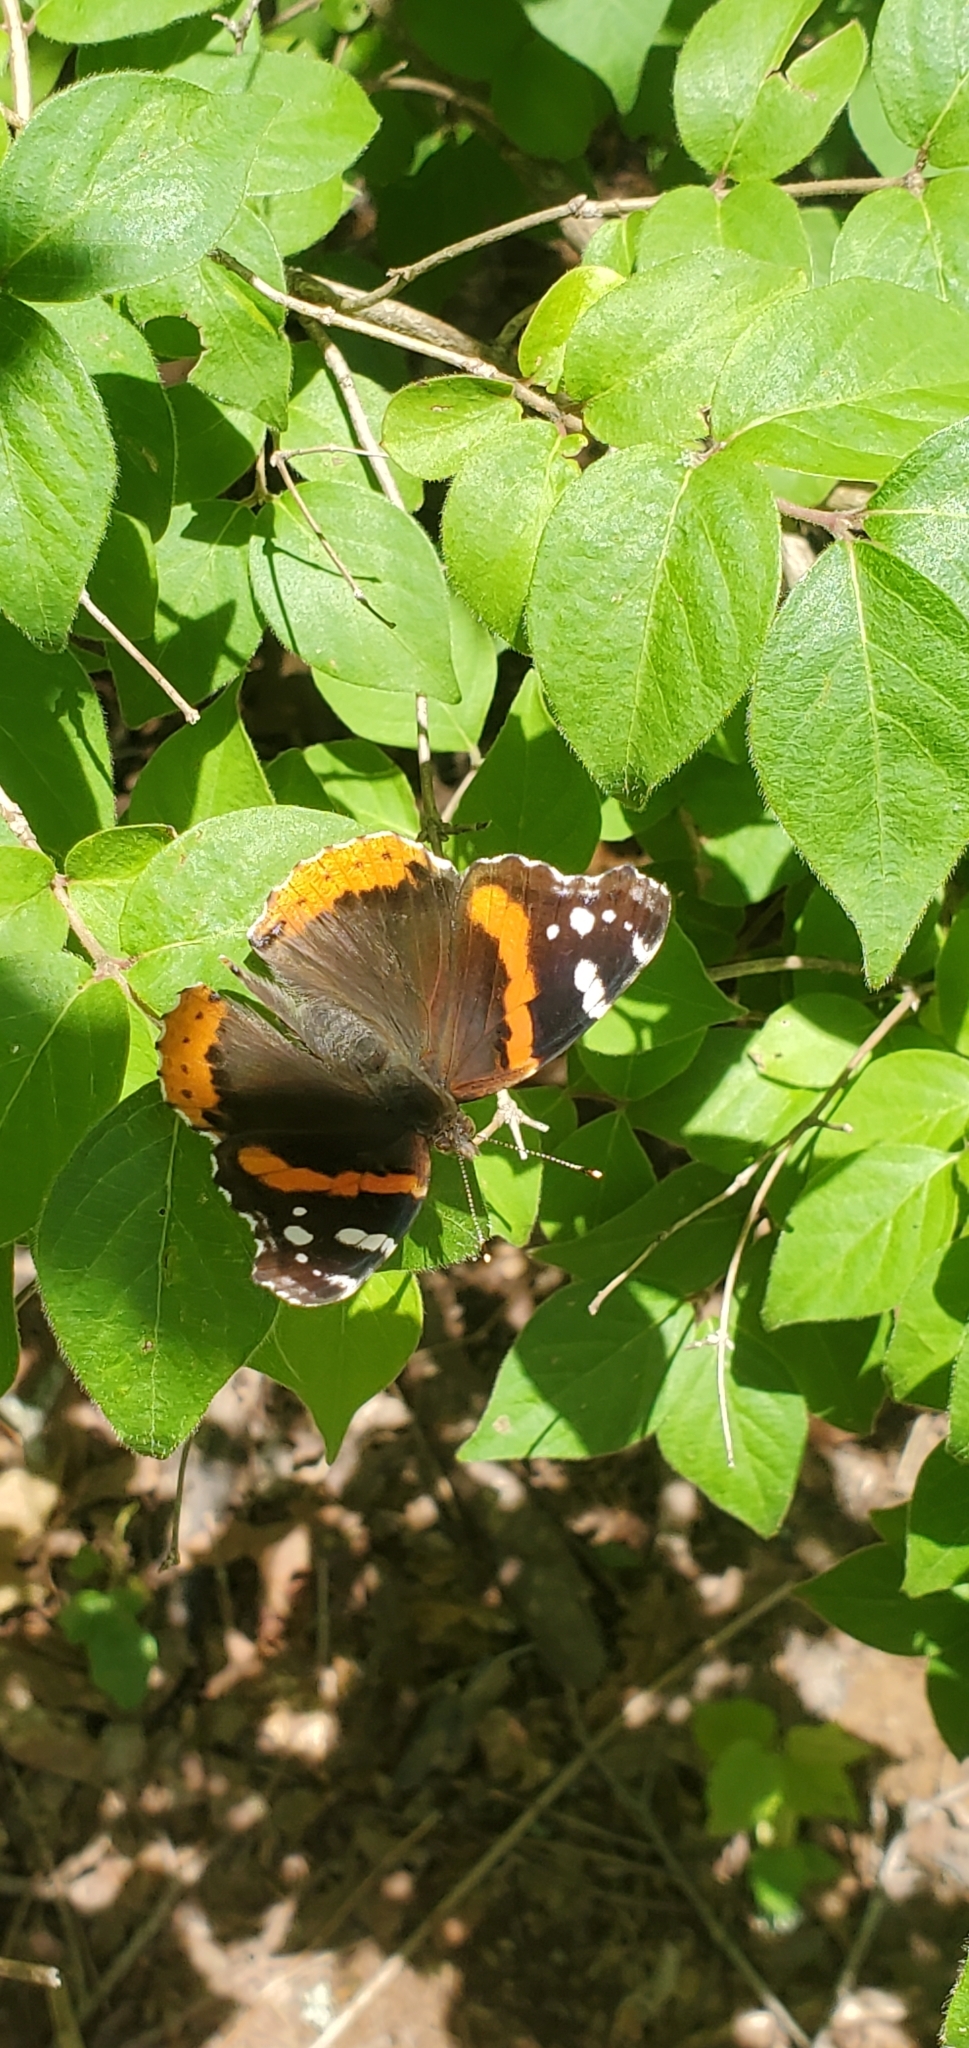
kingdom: Animalia
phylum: Arthropoda
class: Insecta
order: Lepidoptera
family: Nymphalidae
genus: Vanessa
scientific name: Vanessa atalanta
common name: Red admiral
